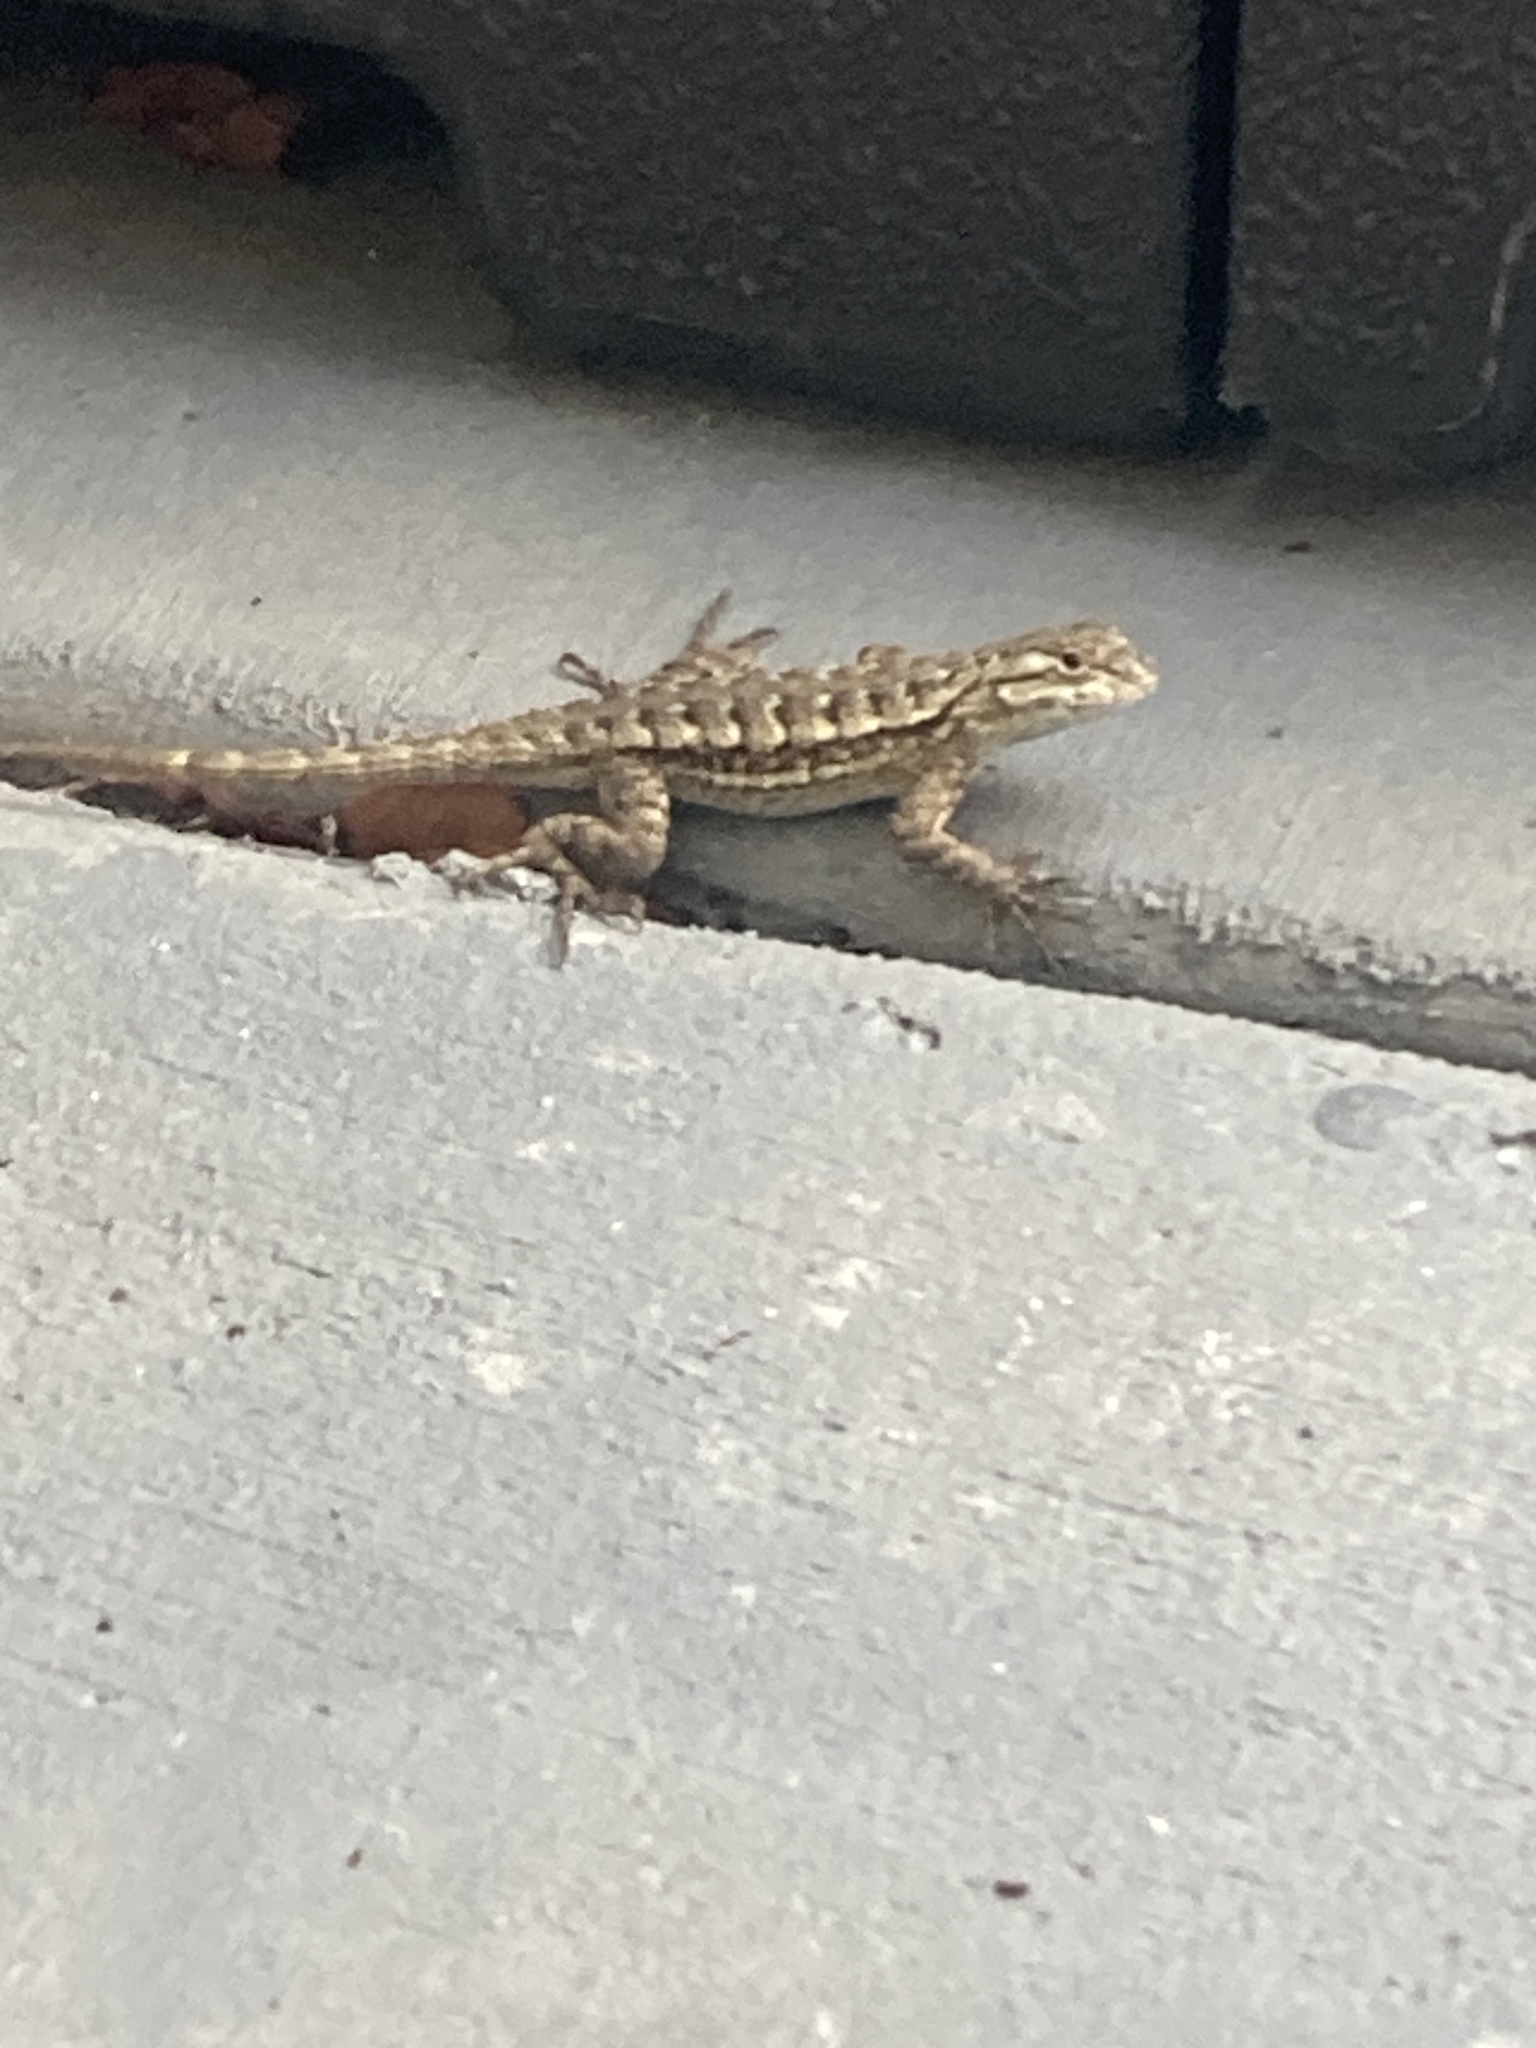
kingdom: Animalia
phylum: Chordata
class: Squamata
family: Phrynosomatidae
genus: Sceloporus
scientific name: Sceloporus occidentalis
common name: Western fence lizard
